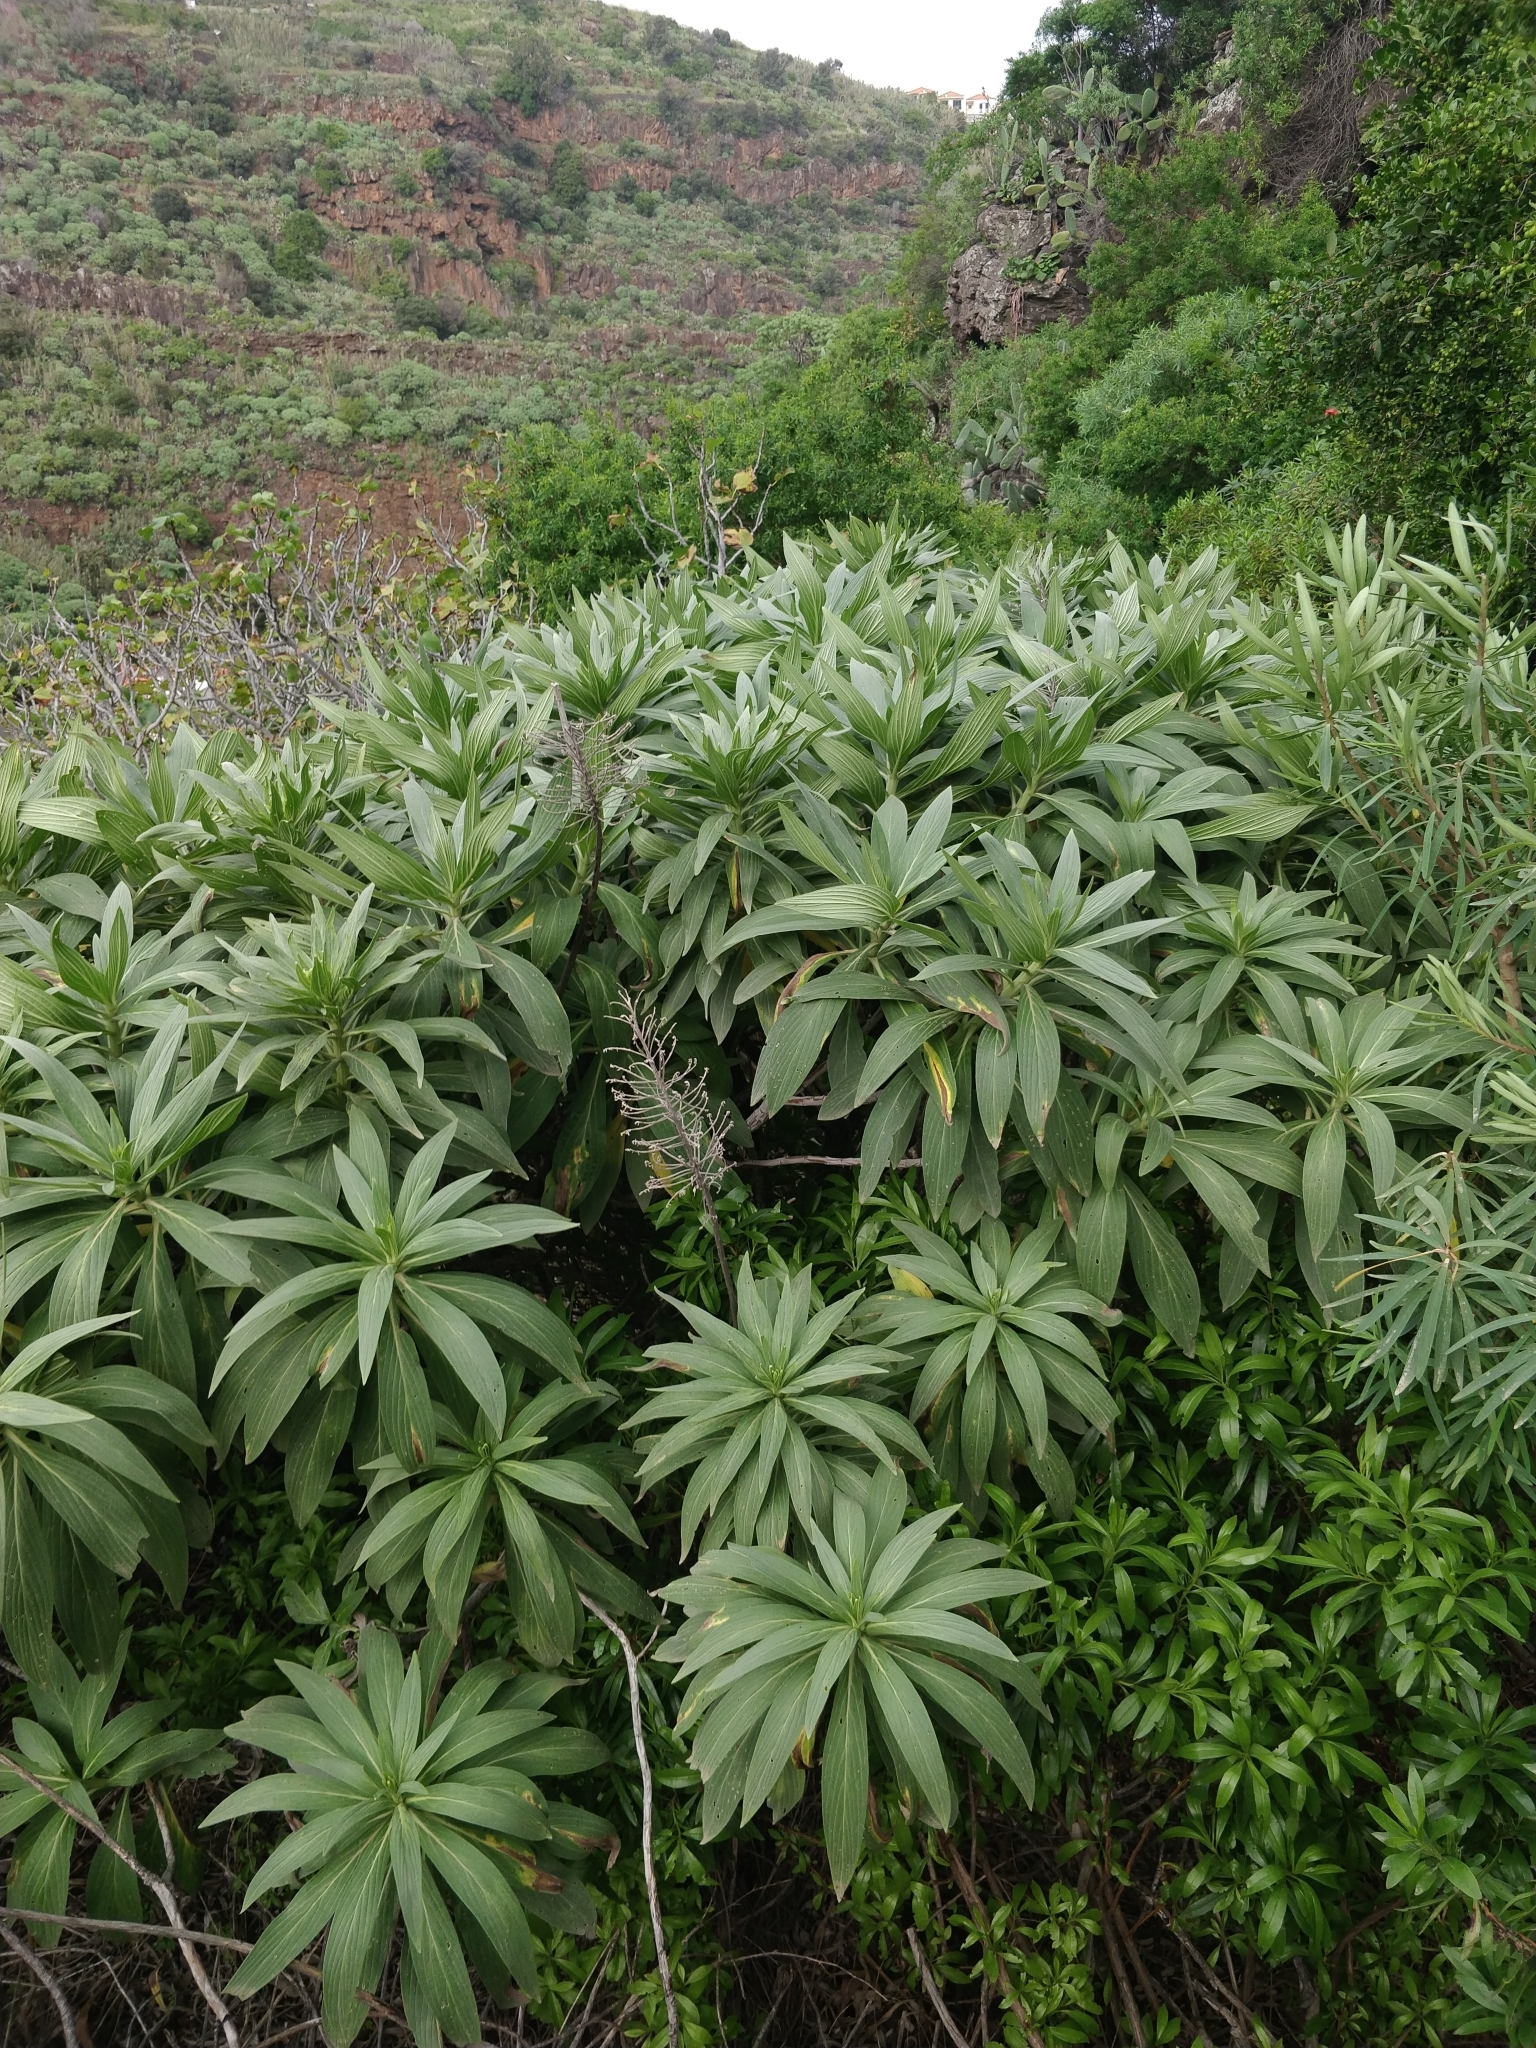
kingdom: Plantae
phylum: Tracheophyta
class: Magnoliopsida
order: Boraginales
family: Boraginaceae
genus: Echium
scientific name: Echium nervosum
